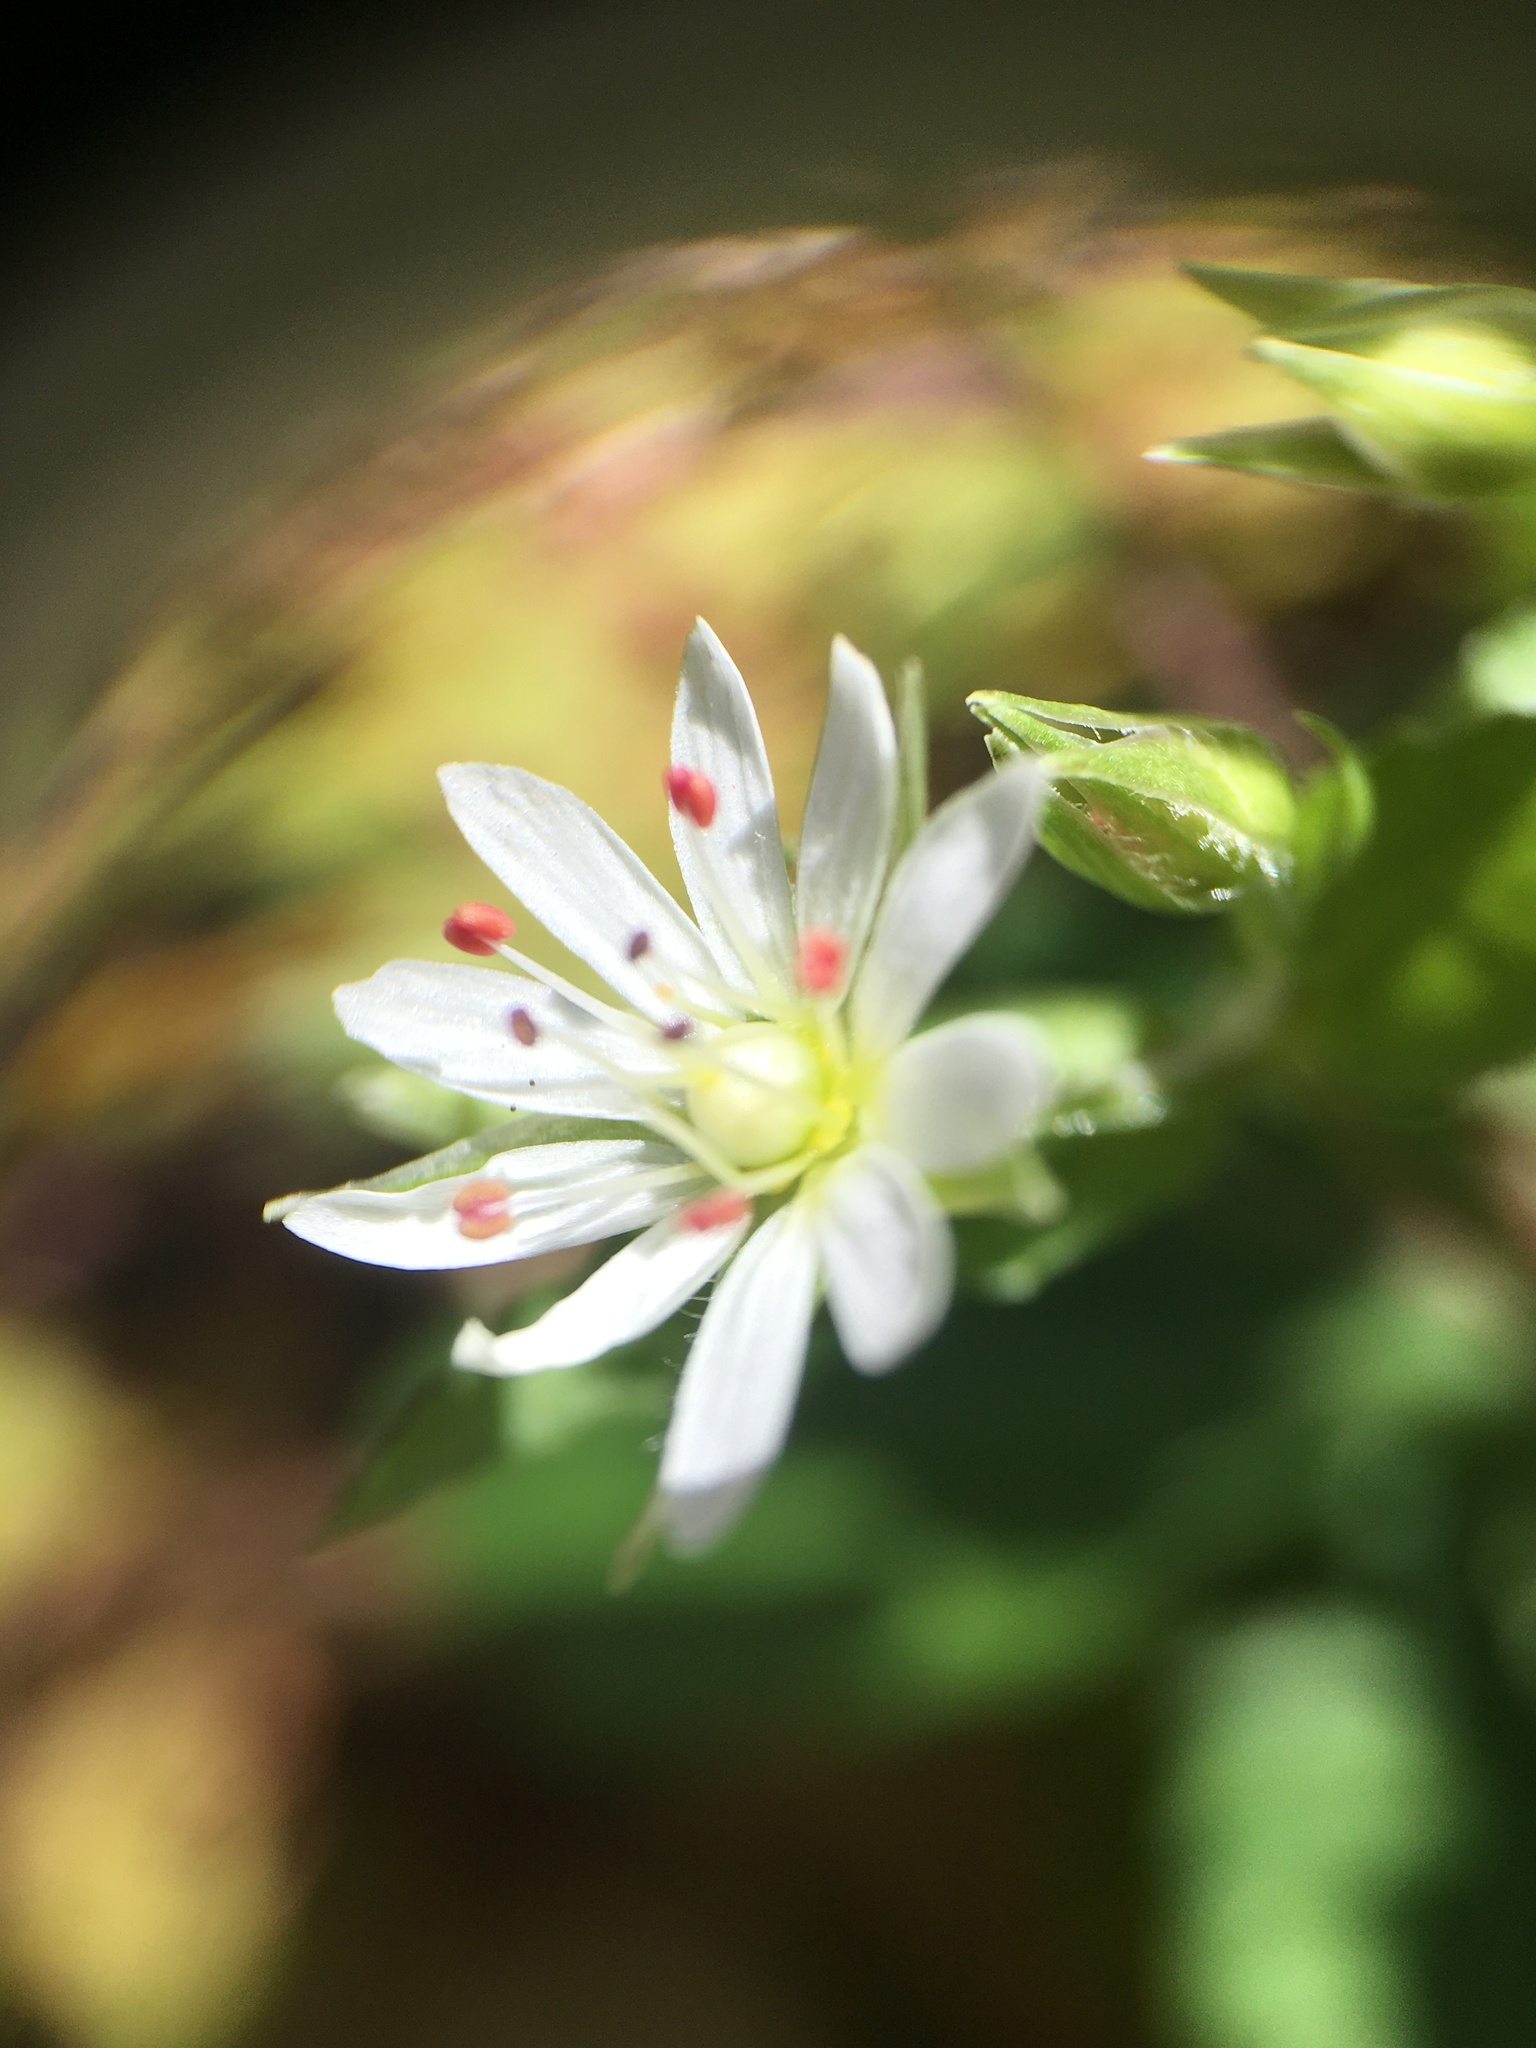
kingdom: Plantae
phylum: Tracheophyta
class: Magnoliopsida
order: Caryophyllales
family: Caryophyllaceae
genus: Stellaria
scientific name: Stellaria pubera
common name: Star chickweed
